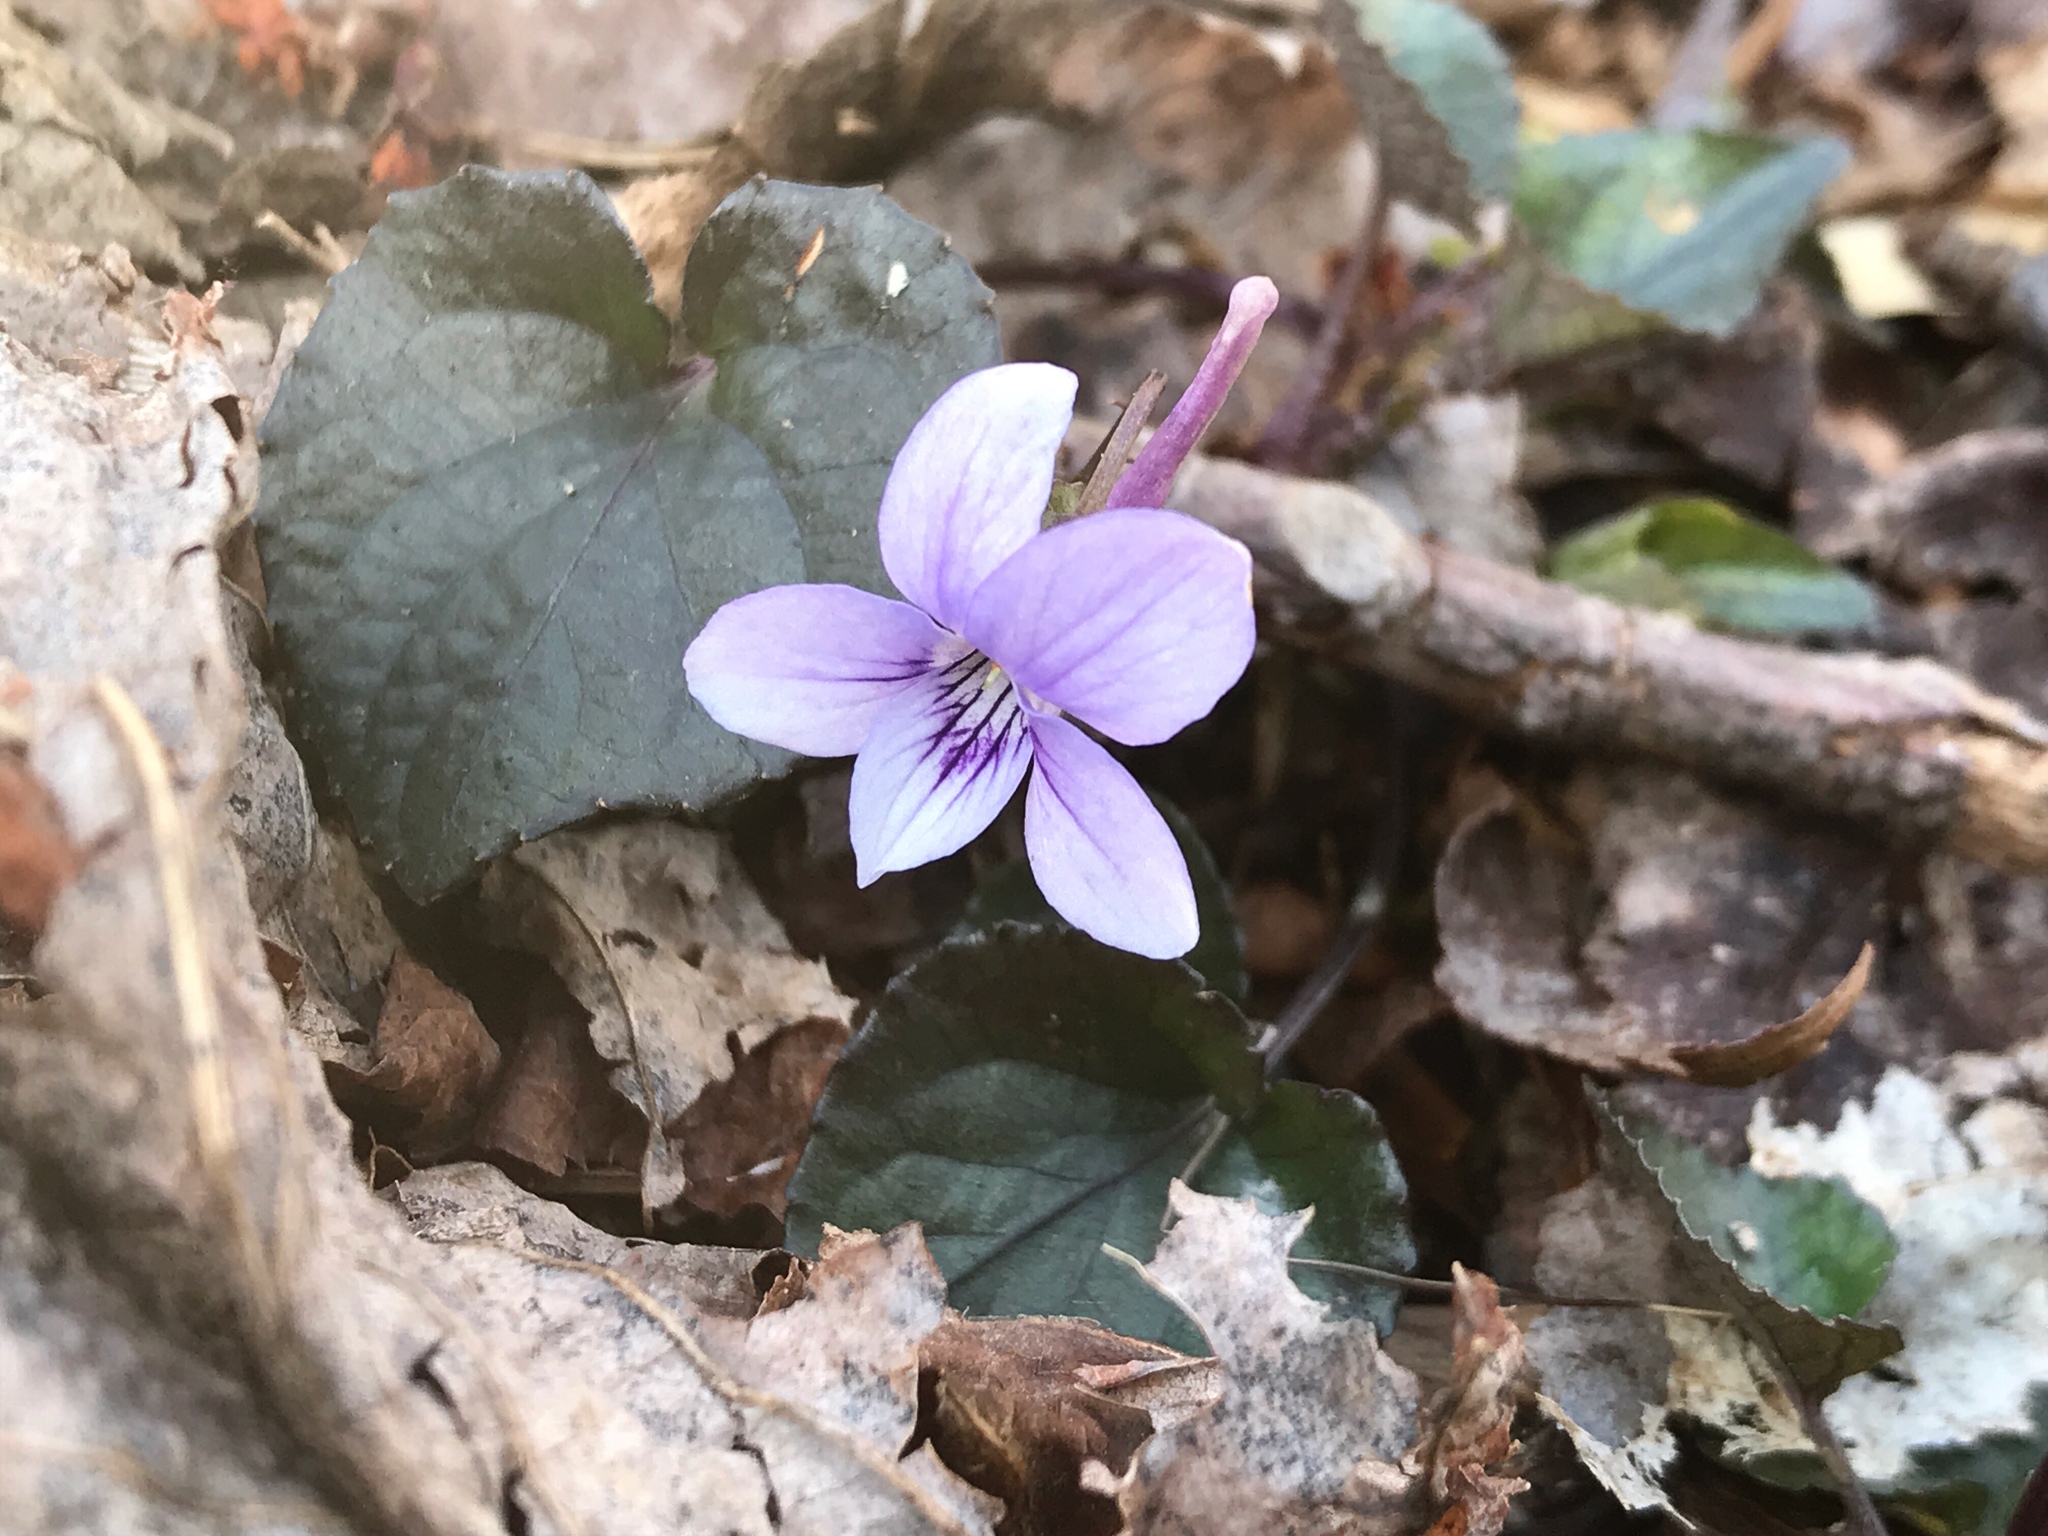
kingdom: Plantae
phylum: Tracheophyta
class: Magnoliopsida
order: Malpighiales
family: Violaceae
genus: Viola
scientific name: Viola rostrata
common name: Long-spur violet
